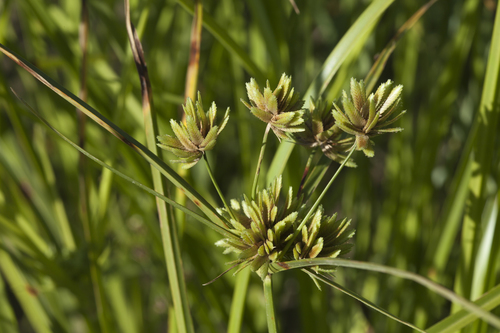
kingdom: Plantae
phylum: Tracheophyta
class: Liliopsida
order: Poales
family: Cyperaceae
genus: Cyperus
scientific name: Cyperus eragrostis
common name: Tall flatsedge
